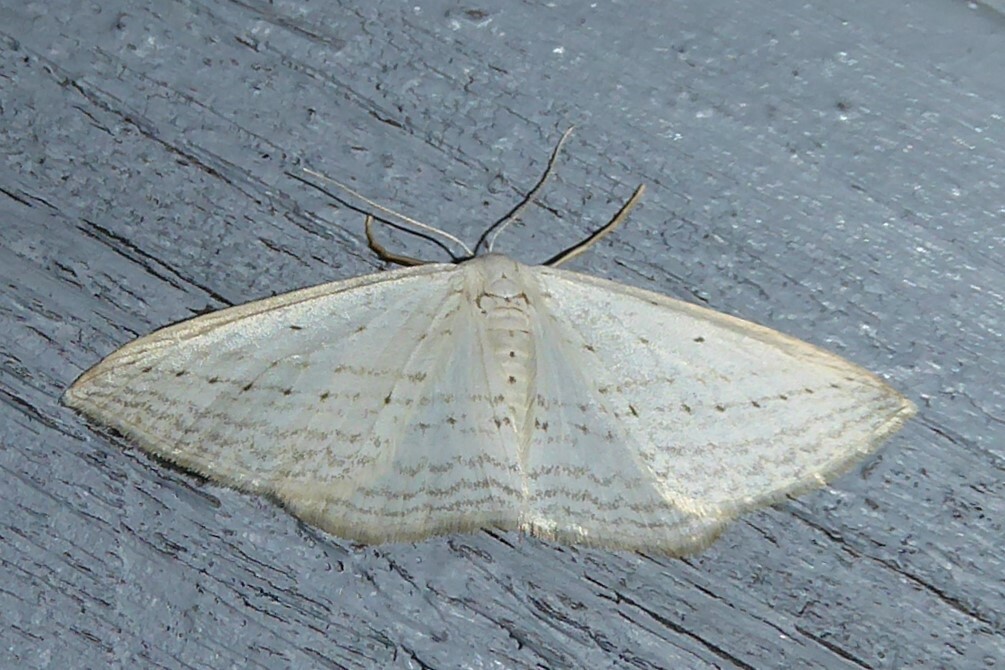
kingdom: Animalia
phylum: Arthropoda
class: Insecta
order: Lepidoptera
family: Geometridae
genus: Orthoclydon
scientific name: Orthoclydon praefectata
